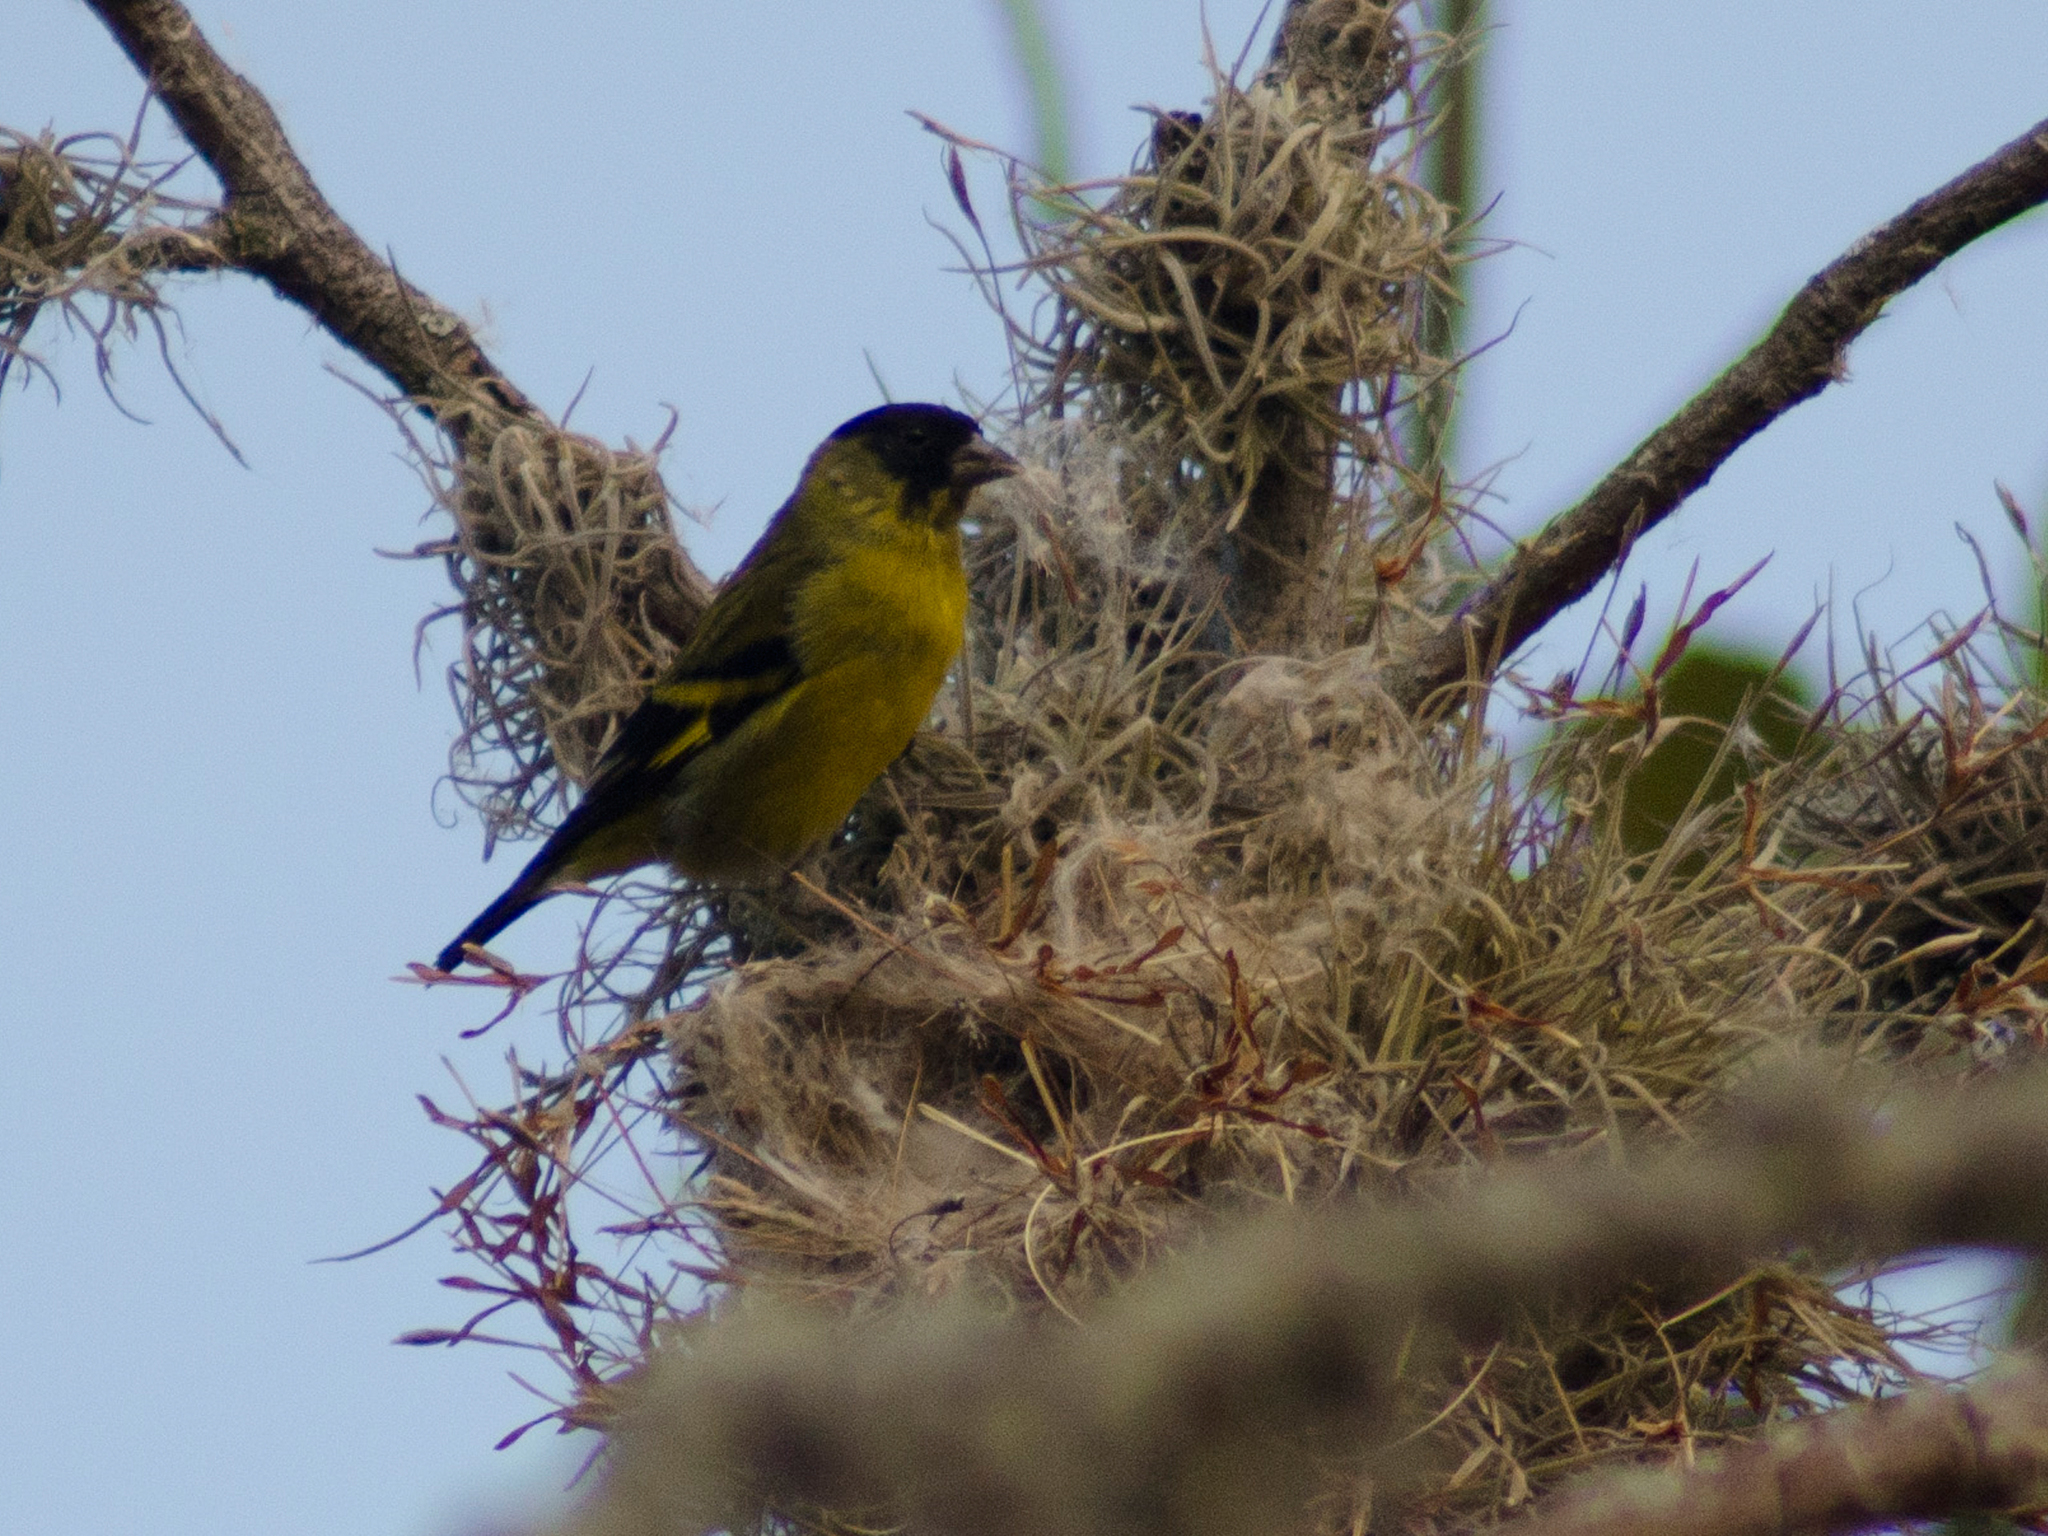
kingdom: Animalia
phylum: Chordata
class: Aves
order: Passeriformes
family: Fringillidae
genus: Spinus
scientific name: Spinus magellanicus
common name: Hooded siskin
